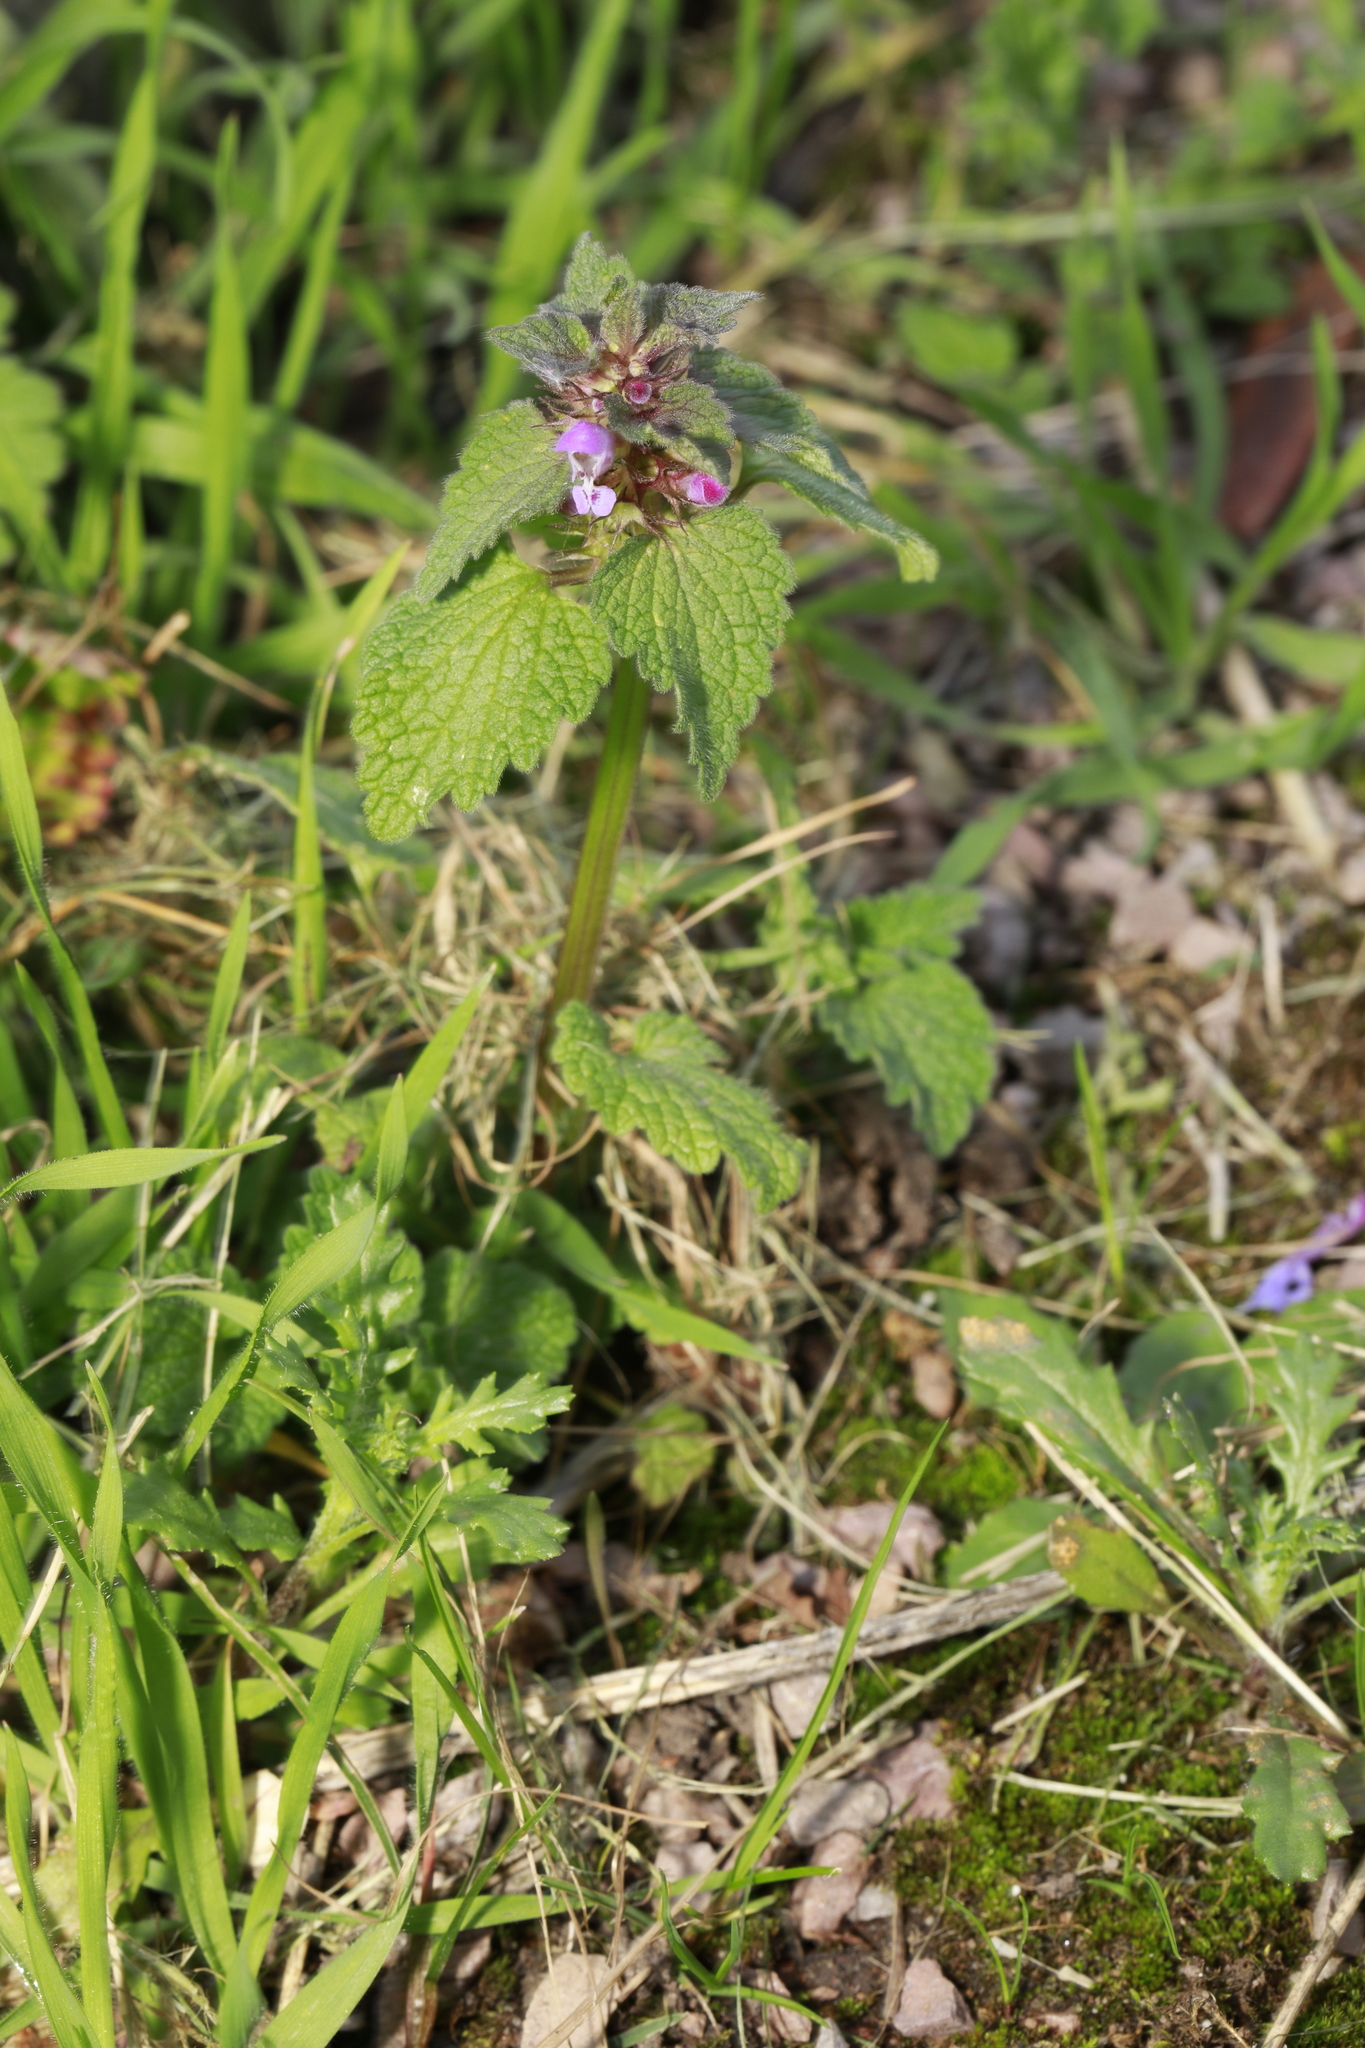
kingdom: Plantae
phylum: Tracheophyta
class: Magnoliopsida
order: Lamiales
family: Lamiaceae
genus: Lamium
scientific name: Lamium purpureum
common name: Red dead-nettle
